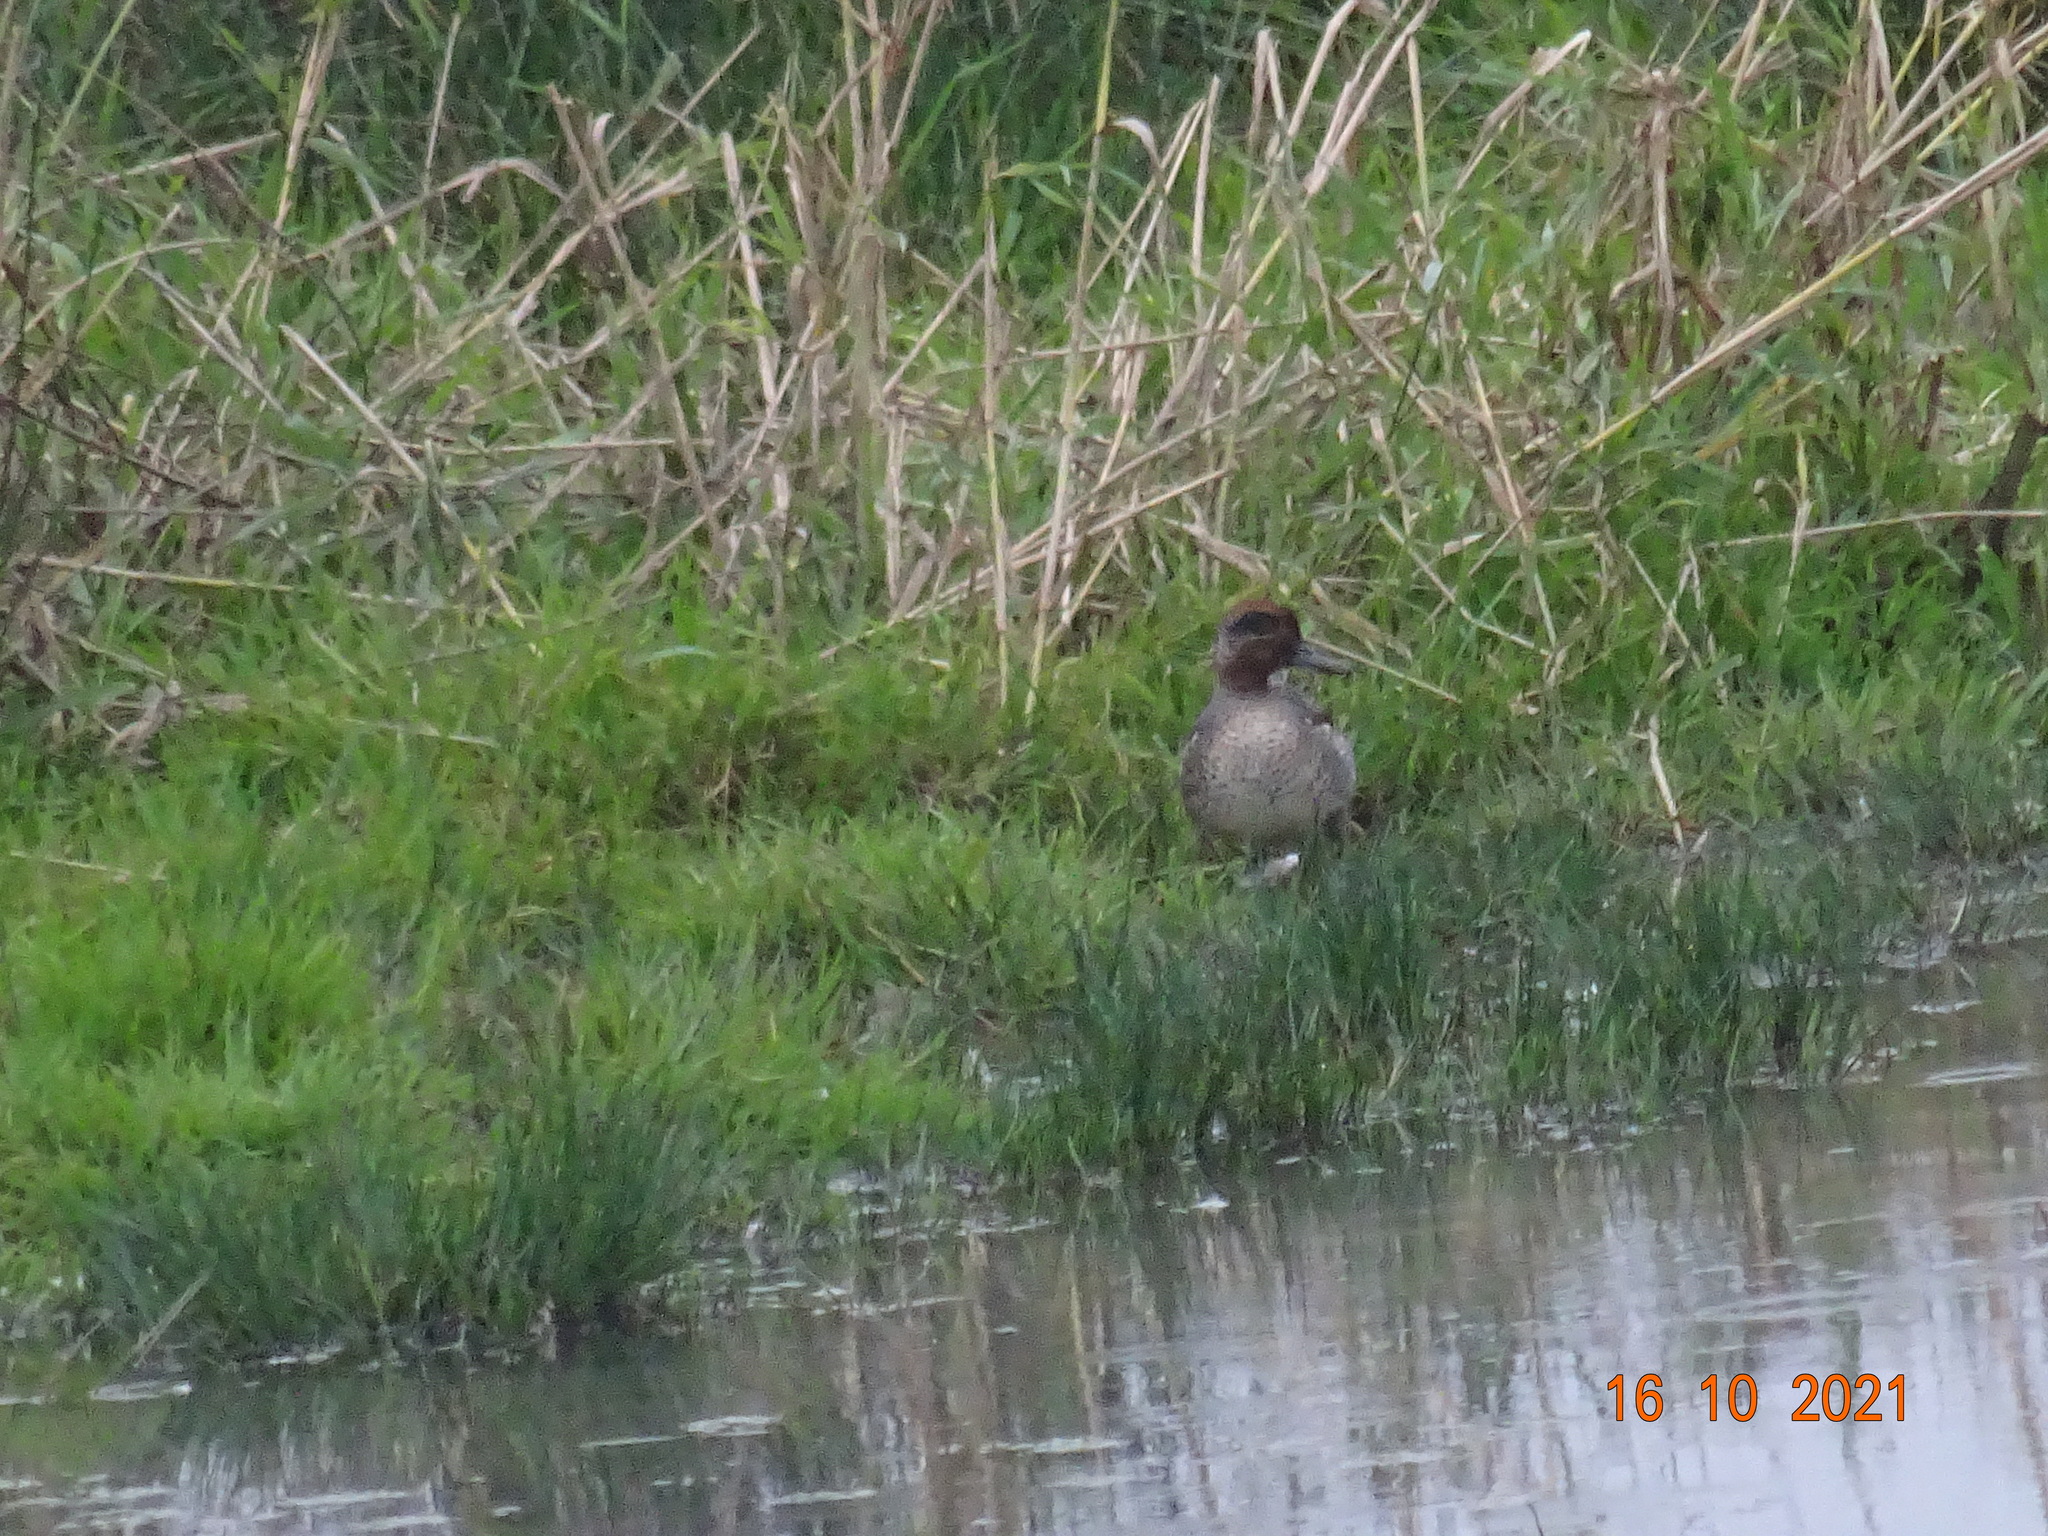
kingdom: Animalia
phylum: Chordata
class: Aves
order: Anseriformes
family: Anatidae
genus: Anas
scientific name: Anas crecca
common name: Eurasian teal
